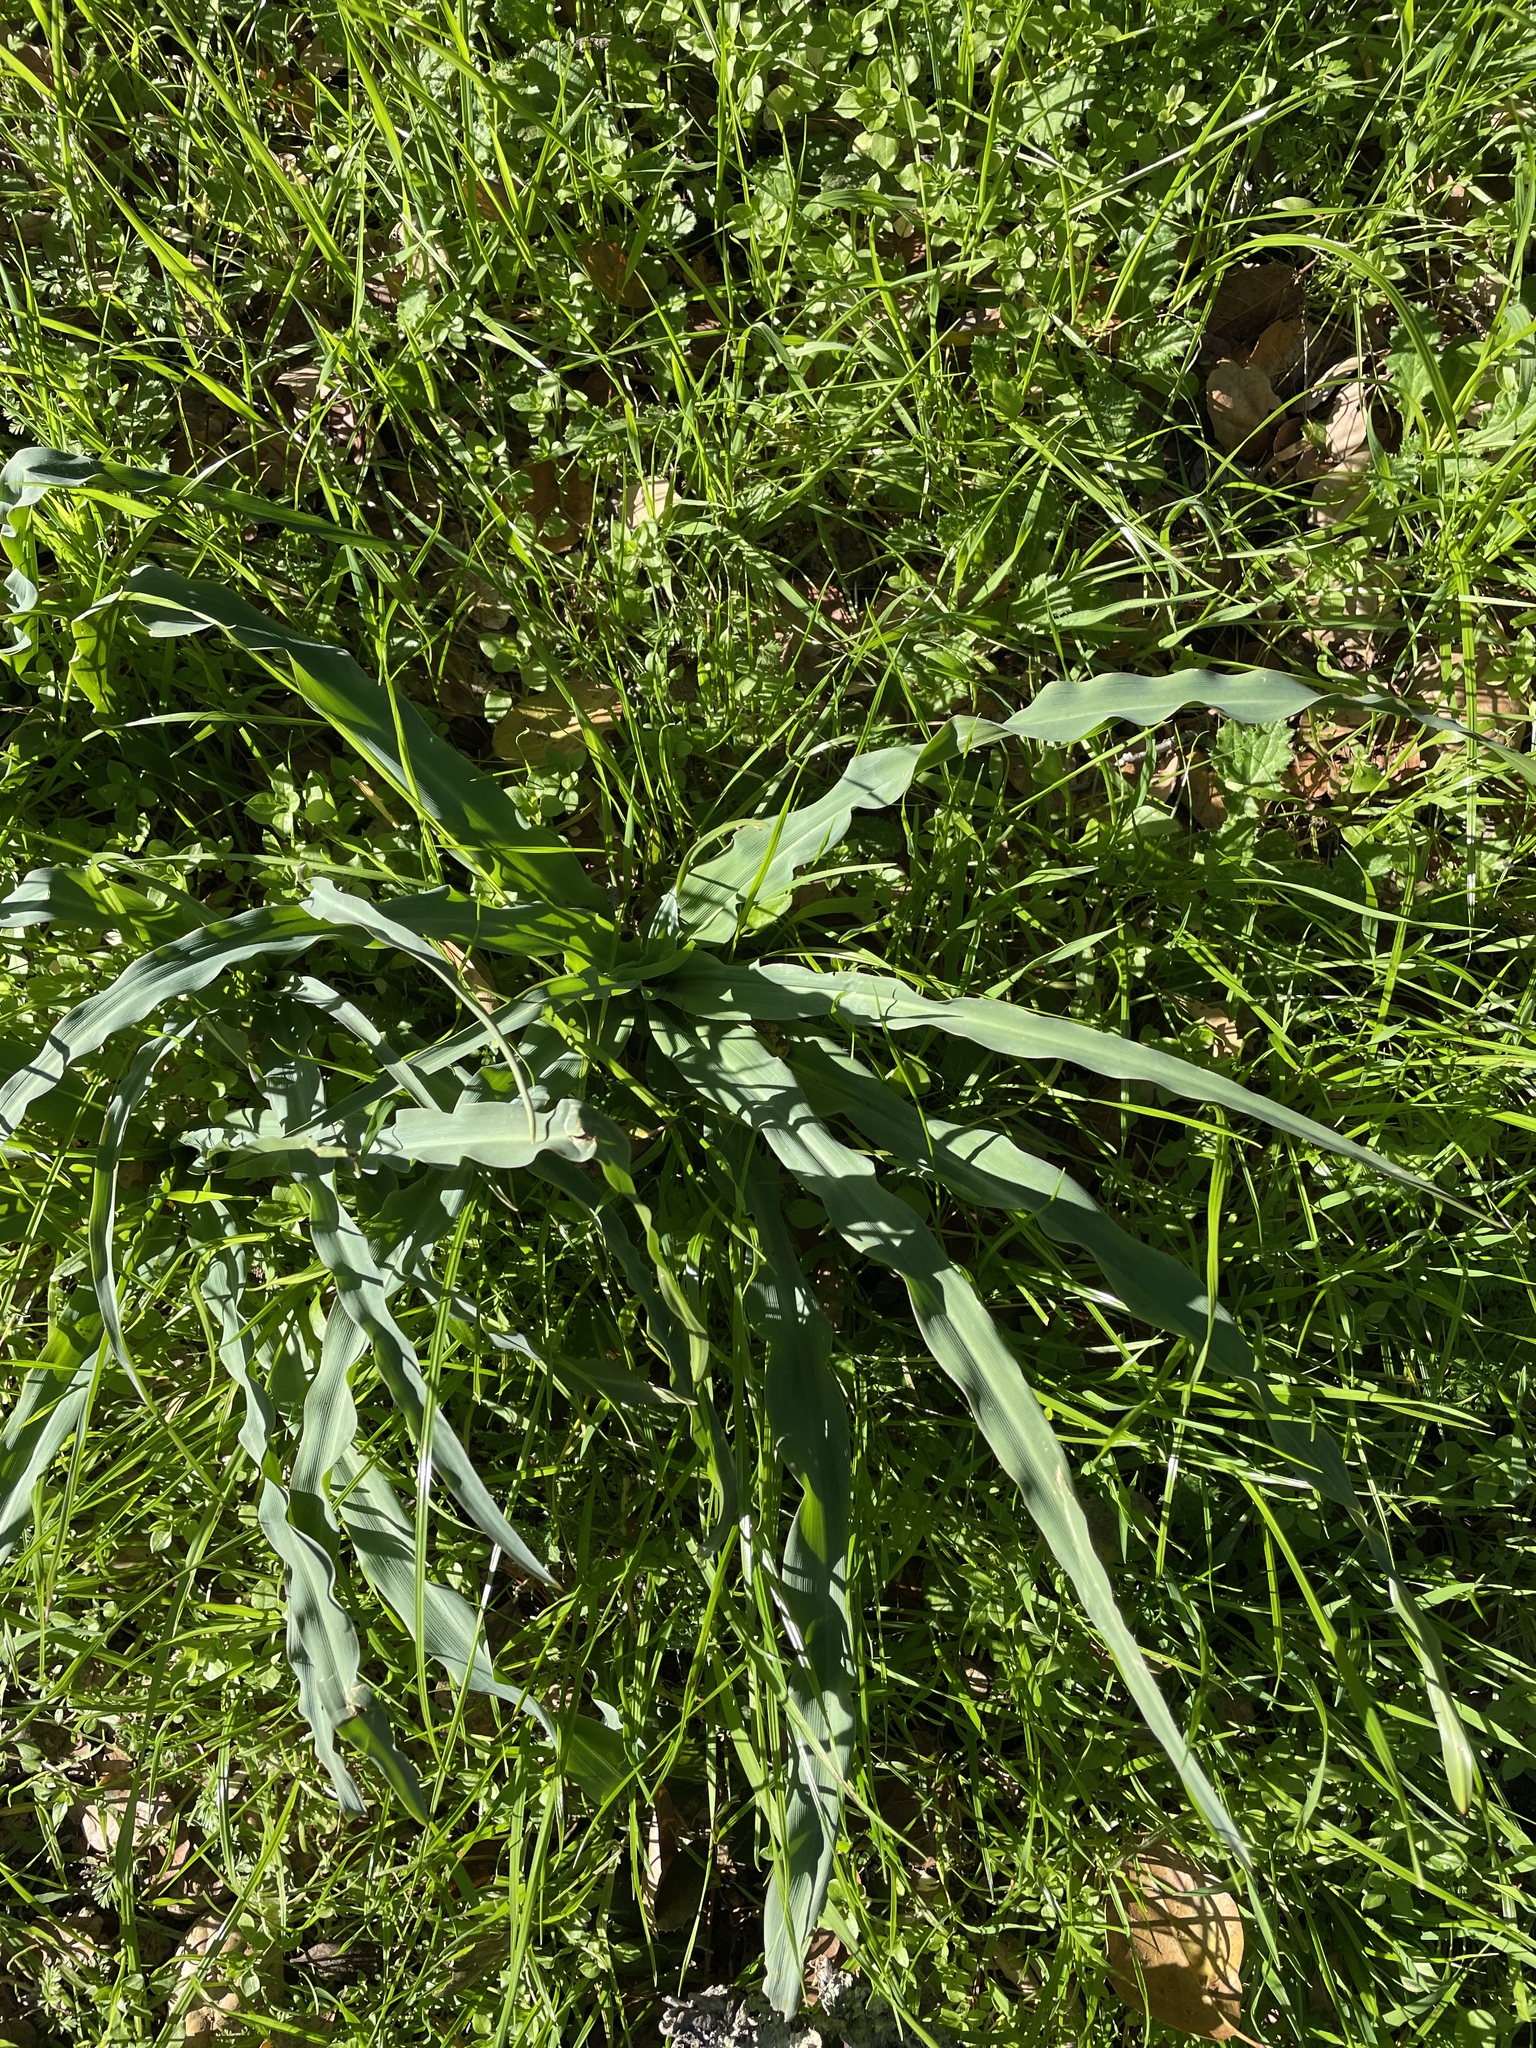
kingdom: Plantae
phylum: Tracheophyta
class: Liliopsida
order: Asparagales
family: Asparagaceae
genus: Chlorogalum
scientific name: Chlorogalum pomeridianum
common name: Amole
